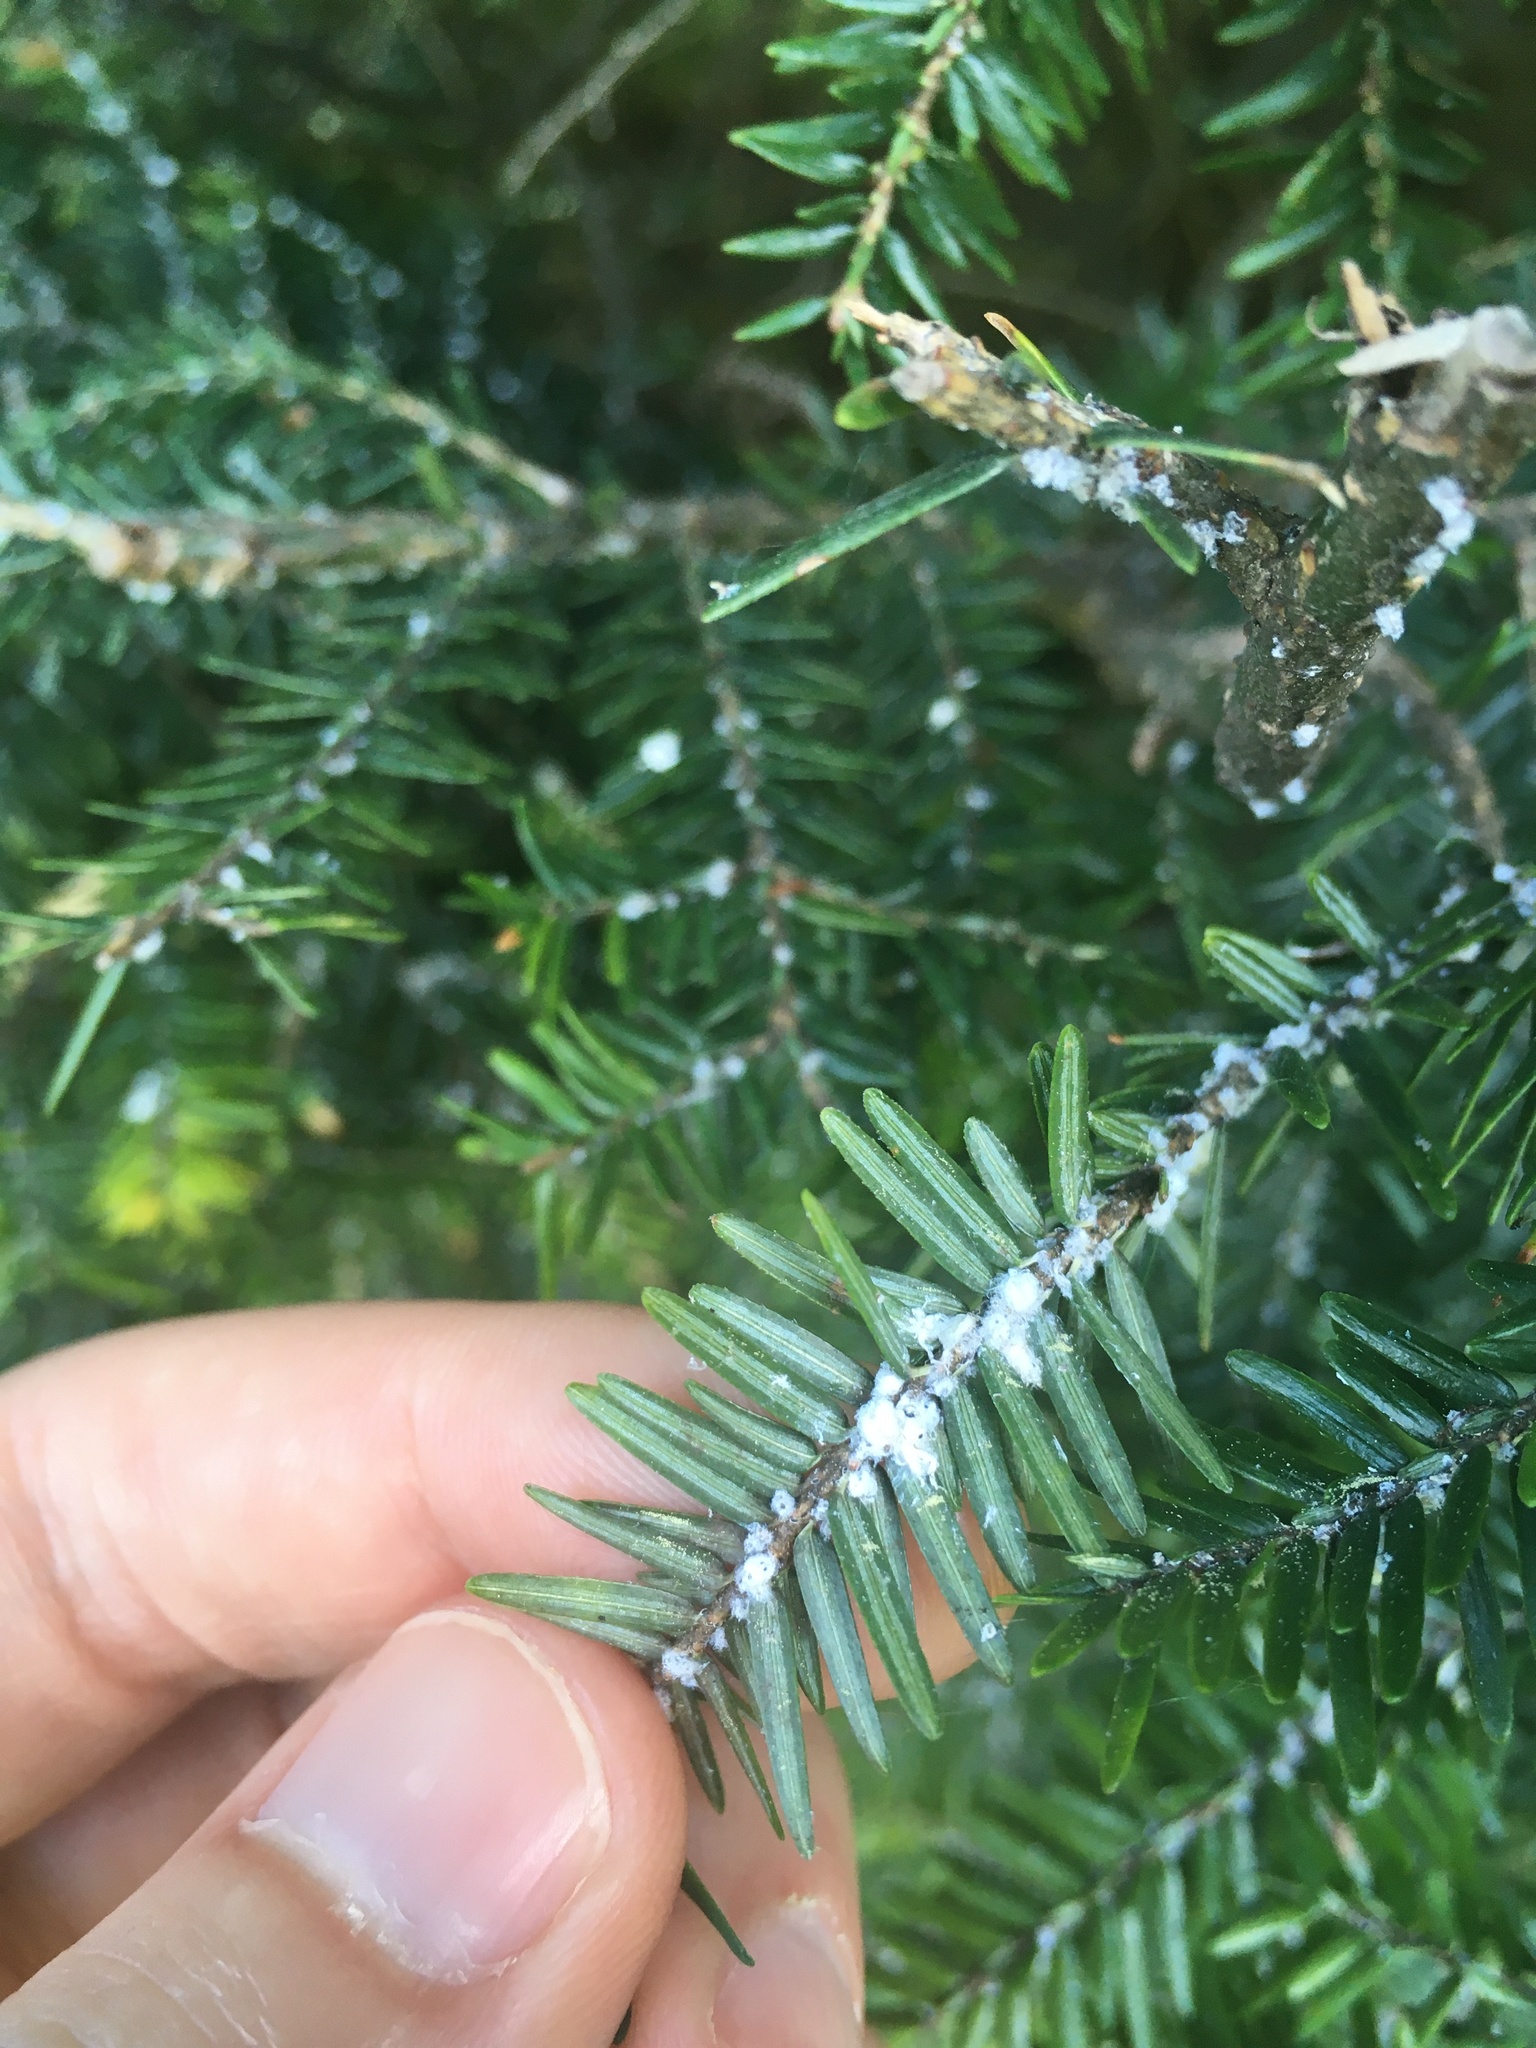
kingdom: Animalia
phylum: Arthropoda
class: Insecta
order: Hemiptera
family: Adelgidae
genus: Adelges
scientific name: Adelges tsugae
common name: Hemlock woolly adelgid
